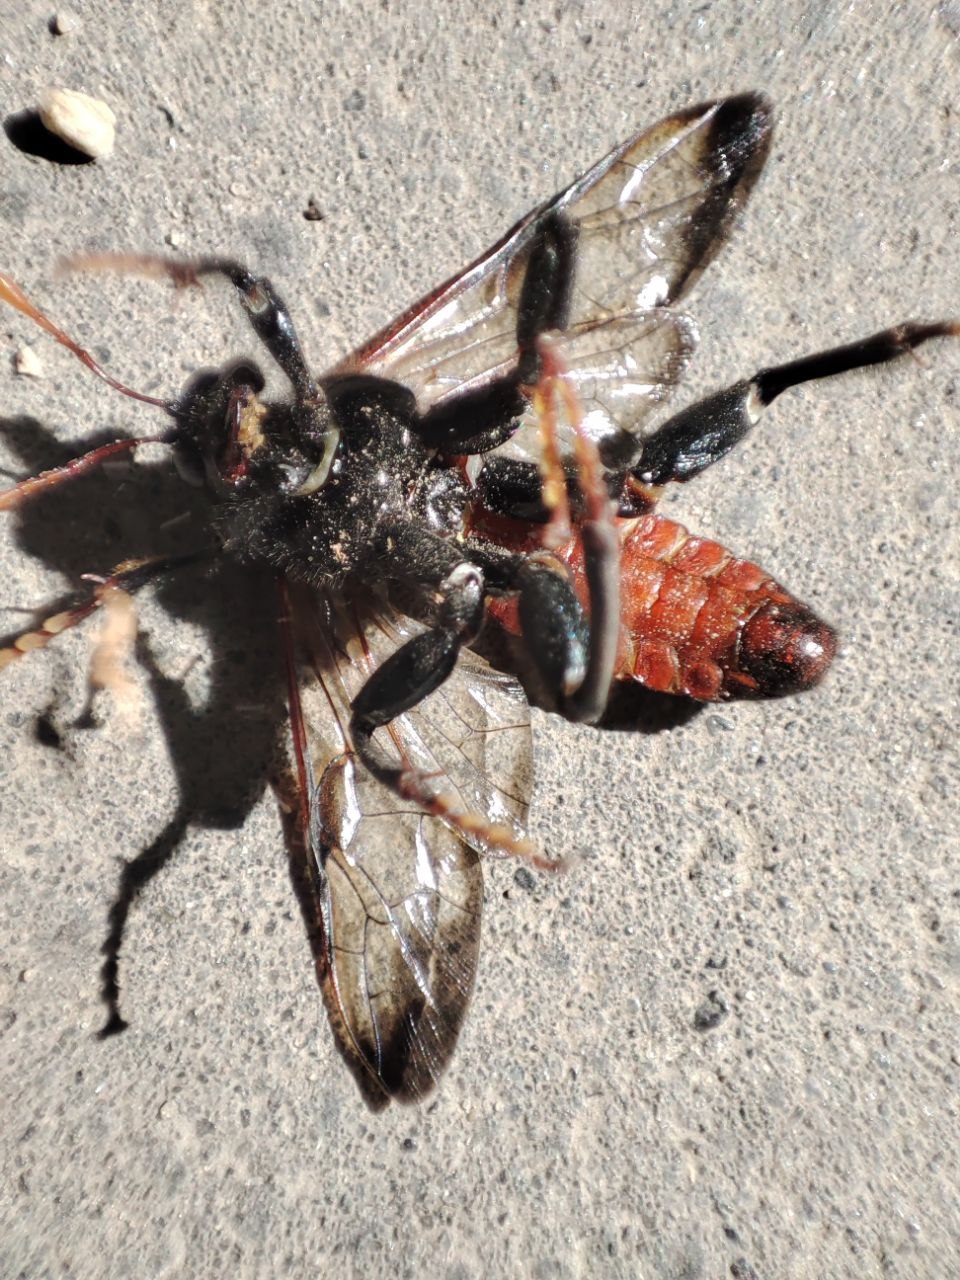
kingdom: Animalia
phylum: Arthropoda
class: Insecta
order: Hymenoptera
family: Cimbicidae
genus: Cimbex
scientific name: Cimbex femoratus
